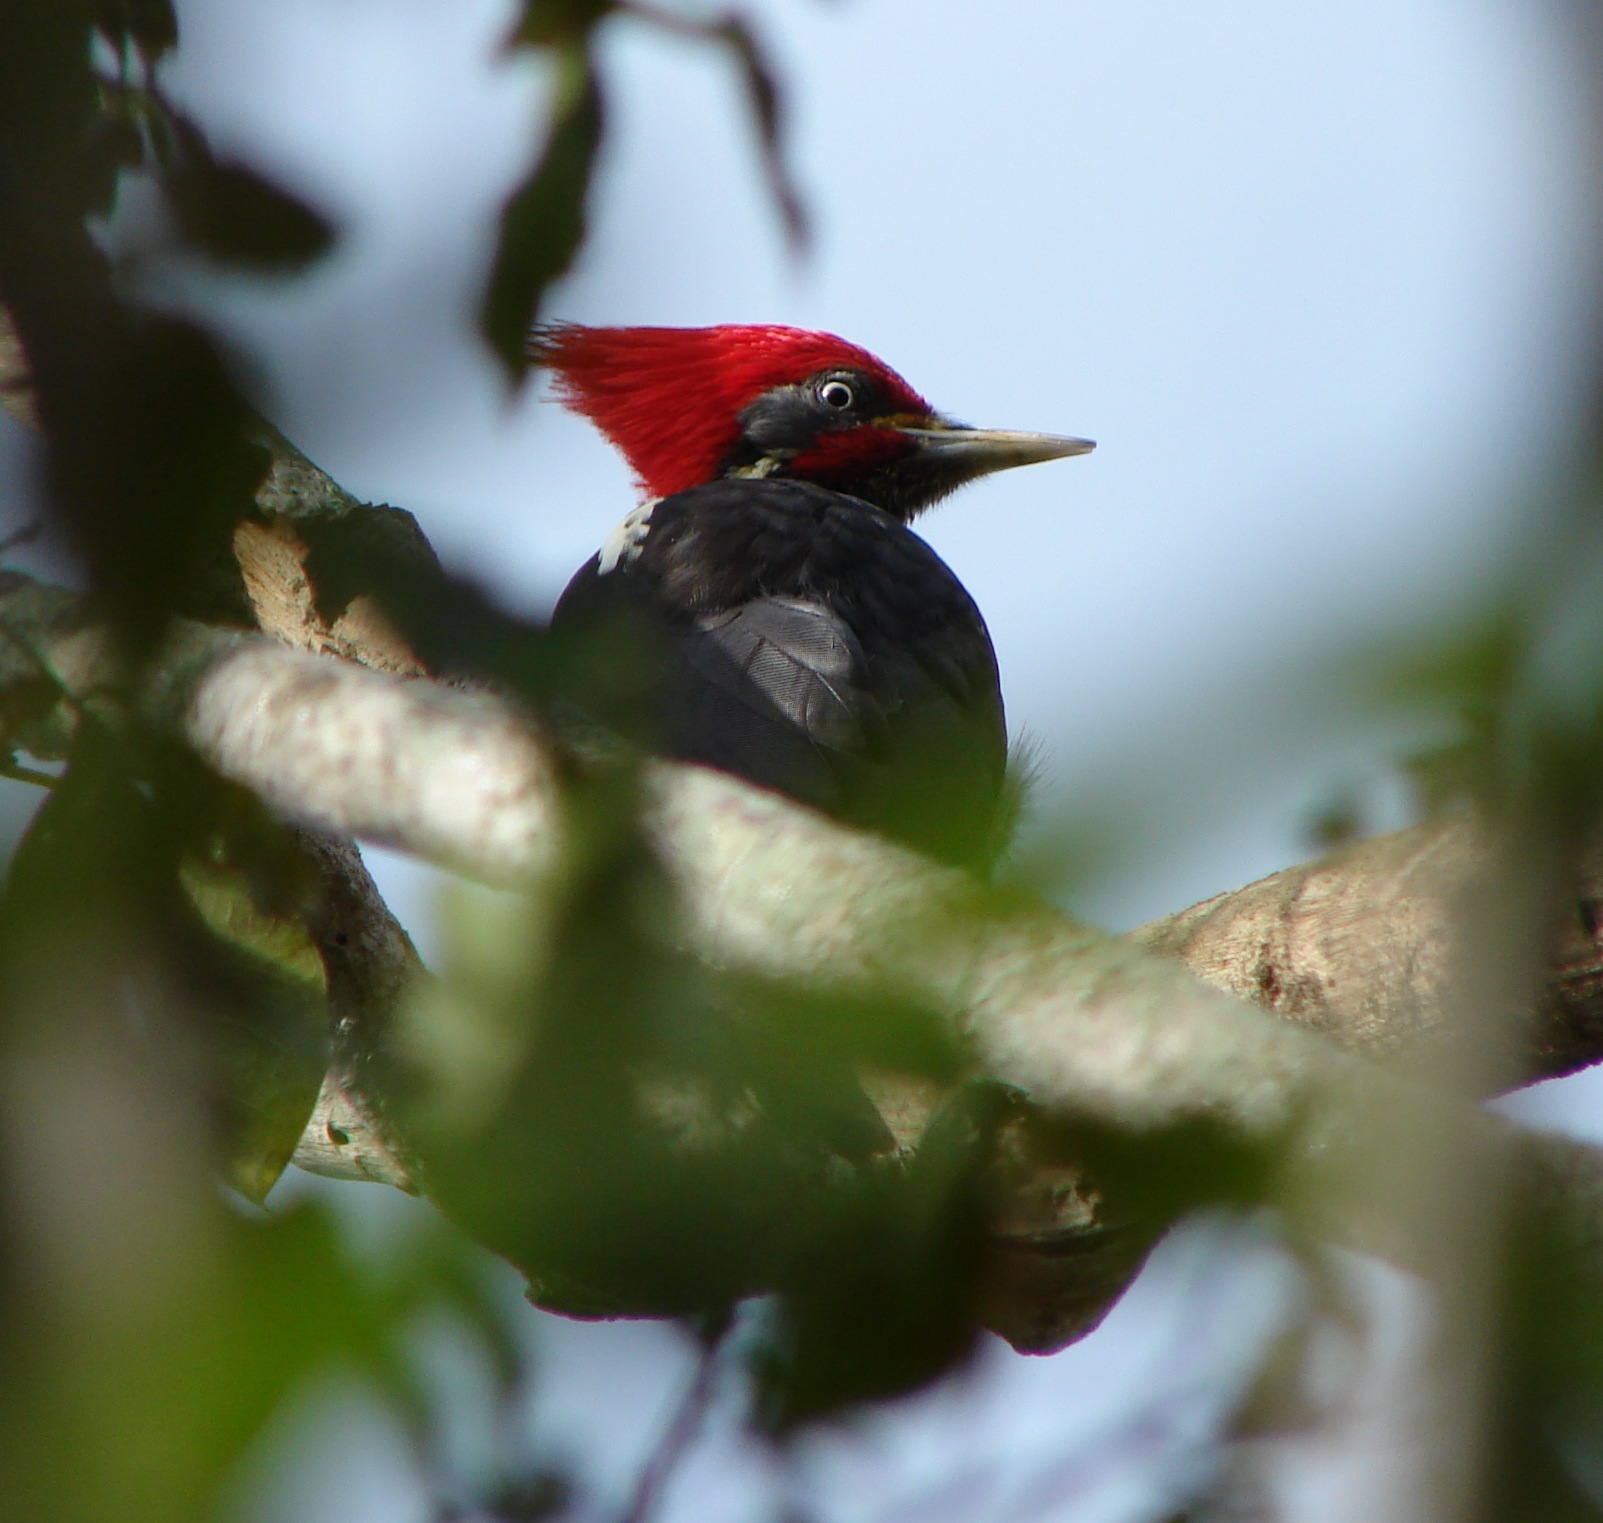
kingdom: Animalia
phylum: Chordata
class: Aves
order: Piciformes
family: Picidae
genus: Dryocopus
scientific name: Dryocopus lineatus
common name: Lineated woodpecker
